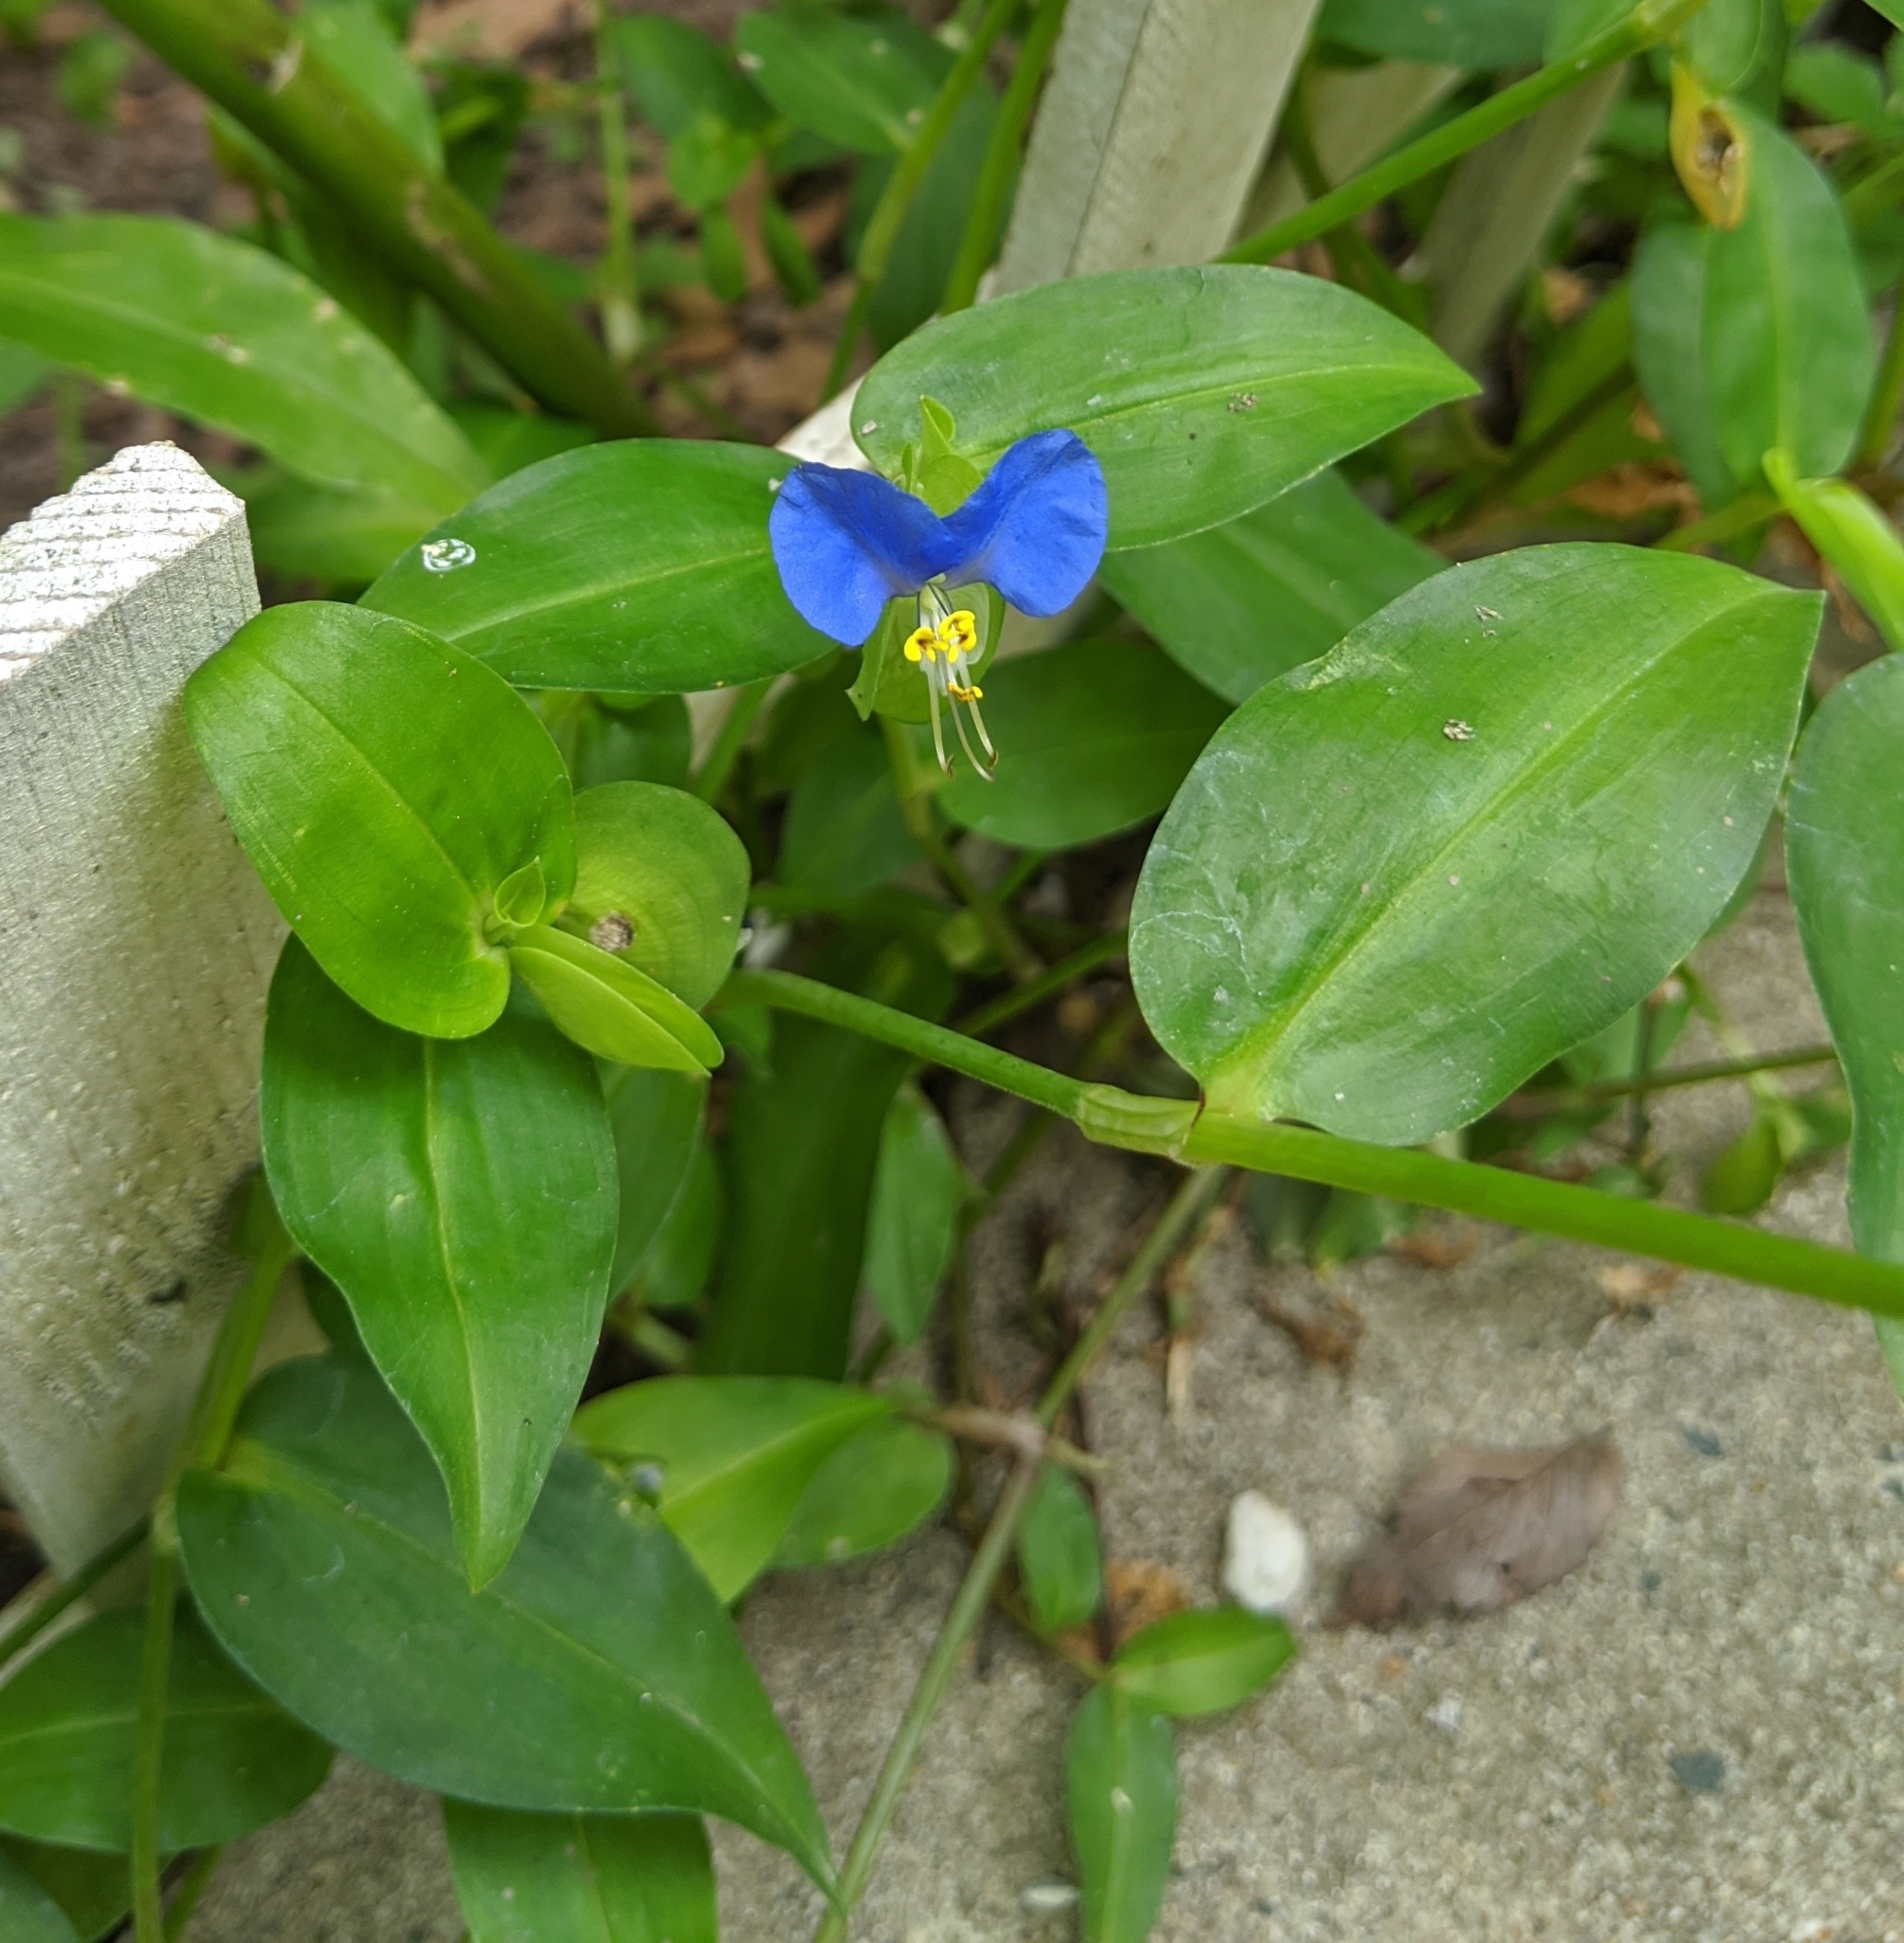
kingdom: Plantae
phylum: Tracheophyta
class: Liliopsida
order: Commelinales
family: Commelinaceae
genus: Commelina
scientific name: Commelina communis
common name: Asiatic dayflower
